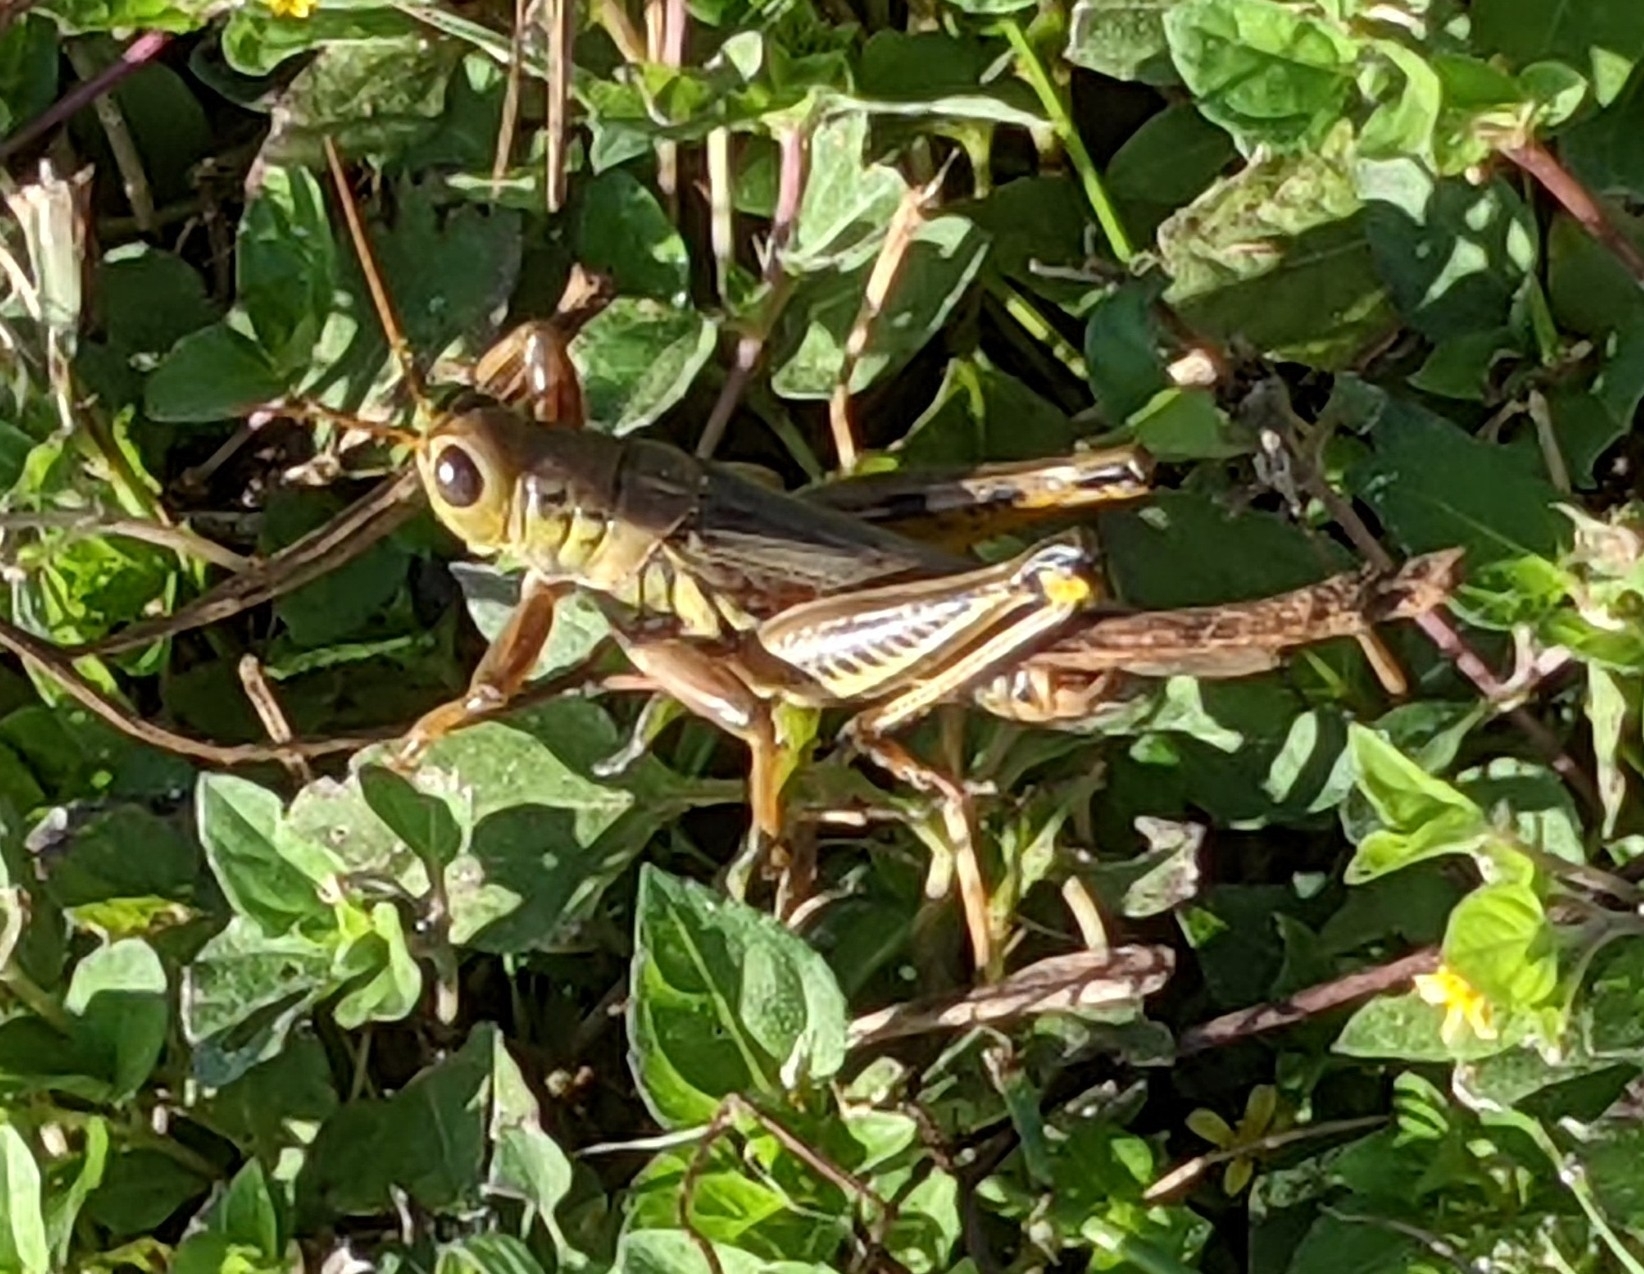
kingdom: Animalia
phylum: Arthropoda
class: Insecta
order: Orthoptera
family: Acrididae
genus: Melanoplus
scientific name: Melanoplus differentialis
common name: Differential grasshopper
